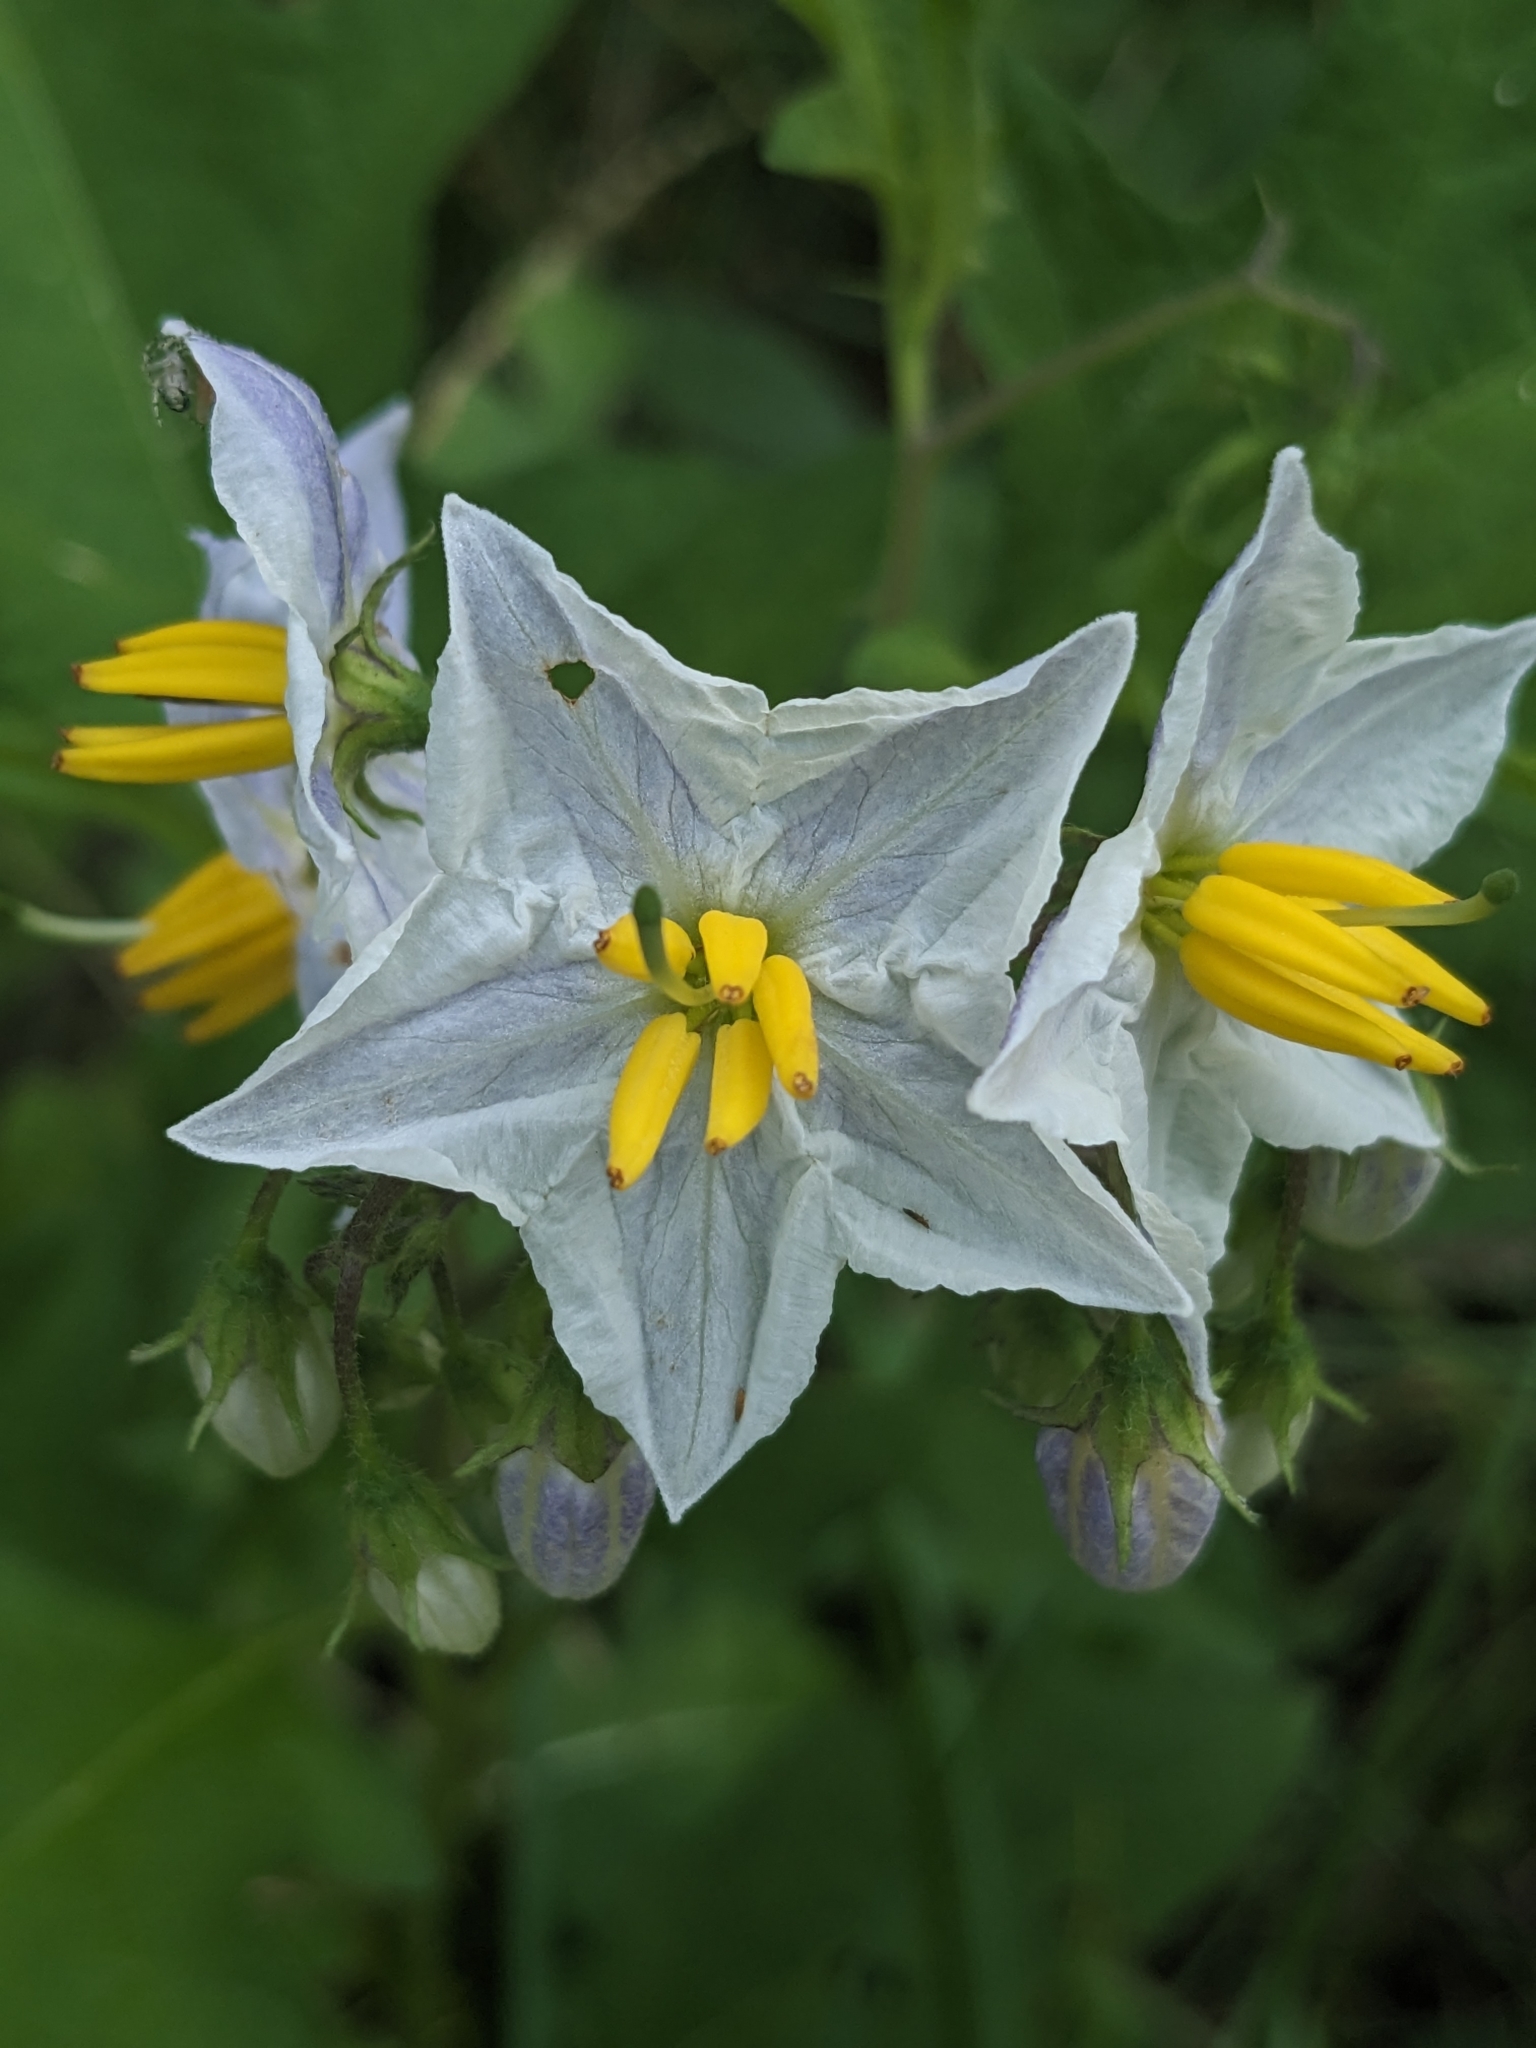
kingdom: Plantae
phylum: Tracheophyta
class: Magnoliopsida
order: Solanales
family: Solanaceae
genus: Solanum
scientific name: Solanum carolinense
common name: Horse-nettle
